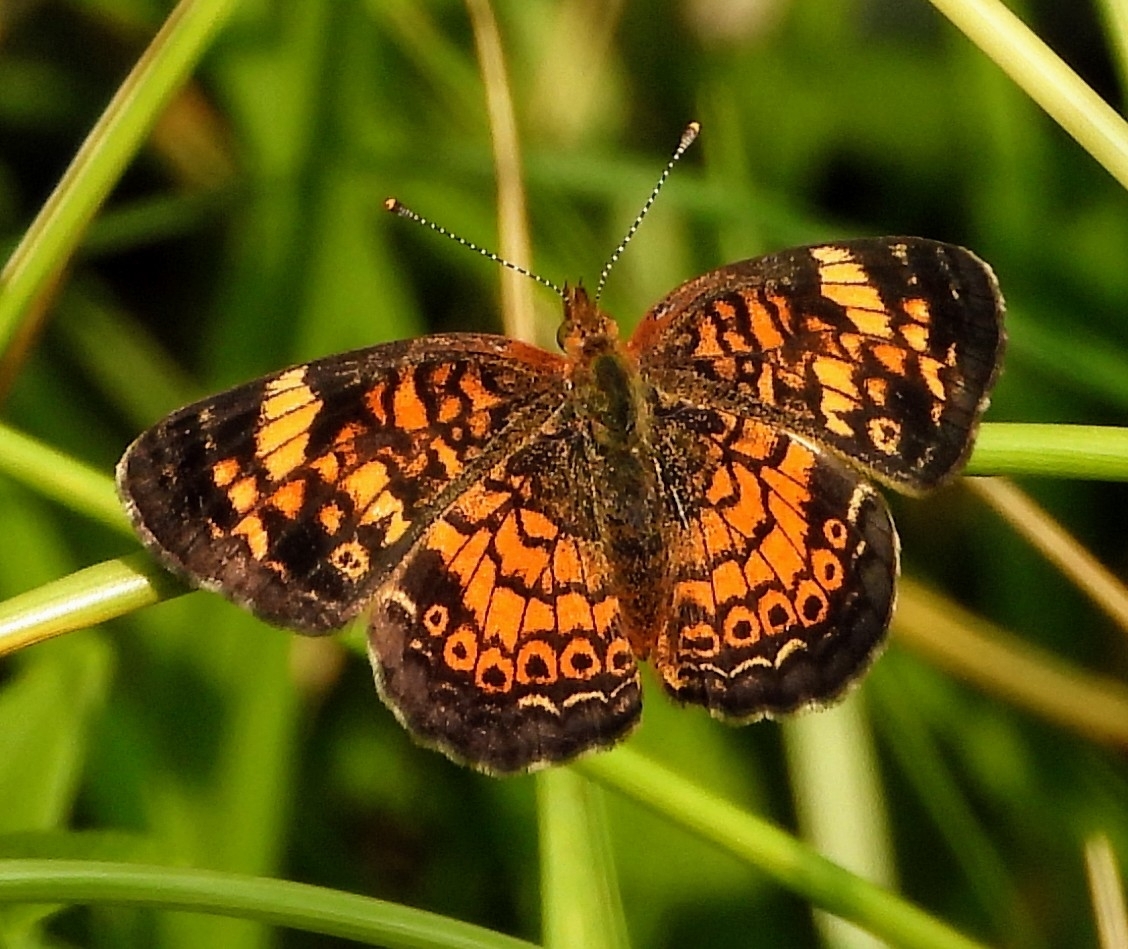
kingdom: Animalia
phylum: Arthropoda
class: Insecta
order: Lepidoptera
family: Nymphalidae
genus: Phyciodes
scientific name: Phyciodes tharos
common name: Pearl crescent
